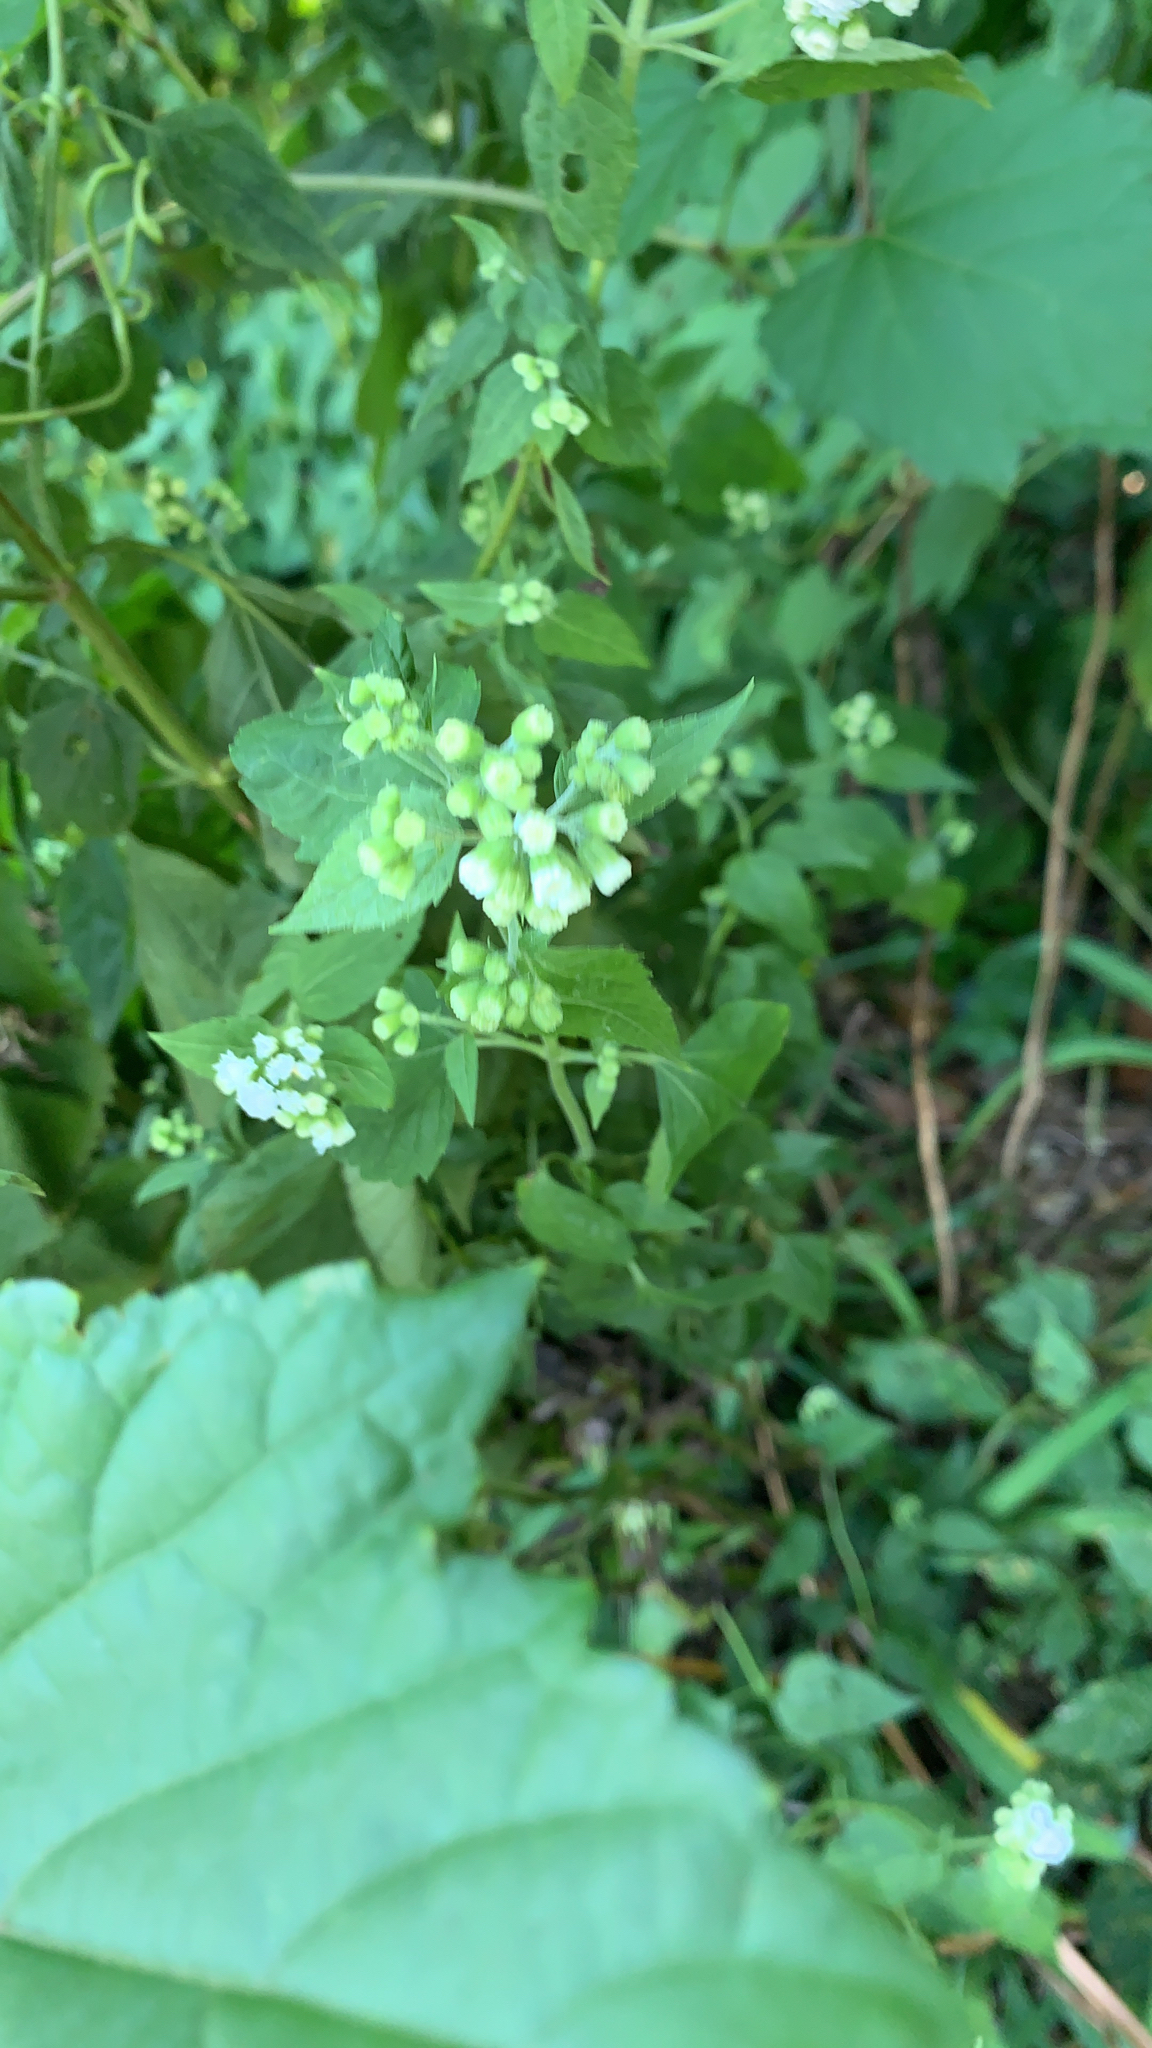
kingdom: Plantae
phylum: Tracheophyta
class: Magnoliopsida
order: Asterales
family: Asteraceae
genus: Ageratina
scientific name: Ageratina altissima
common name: White snakeroot
